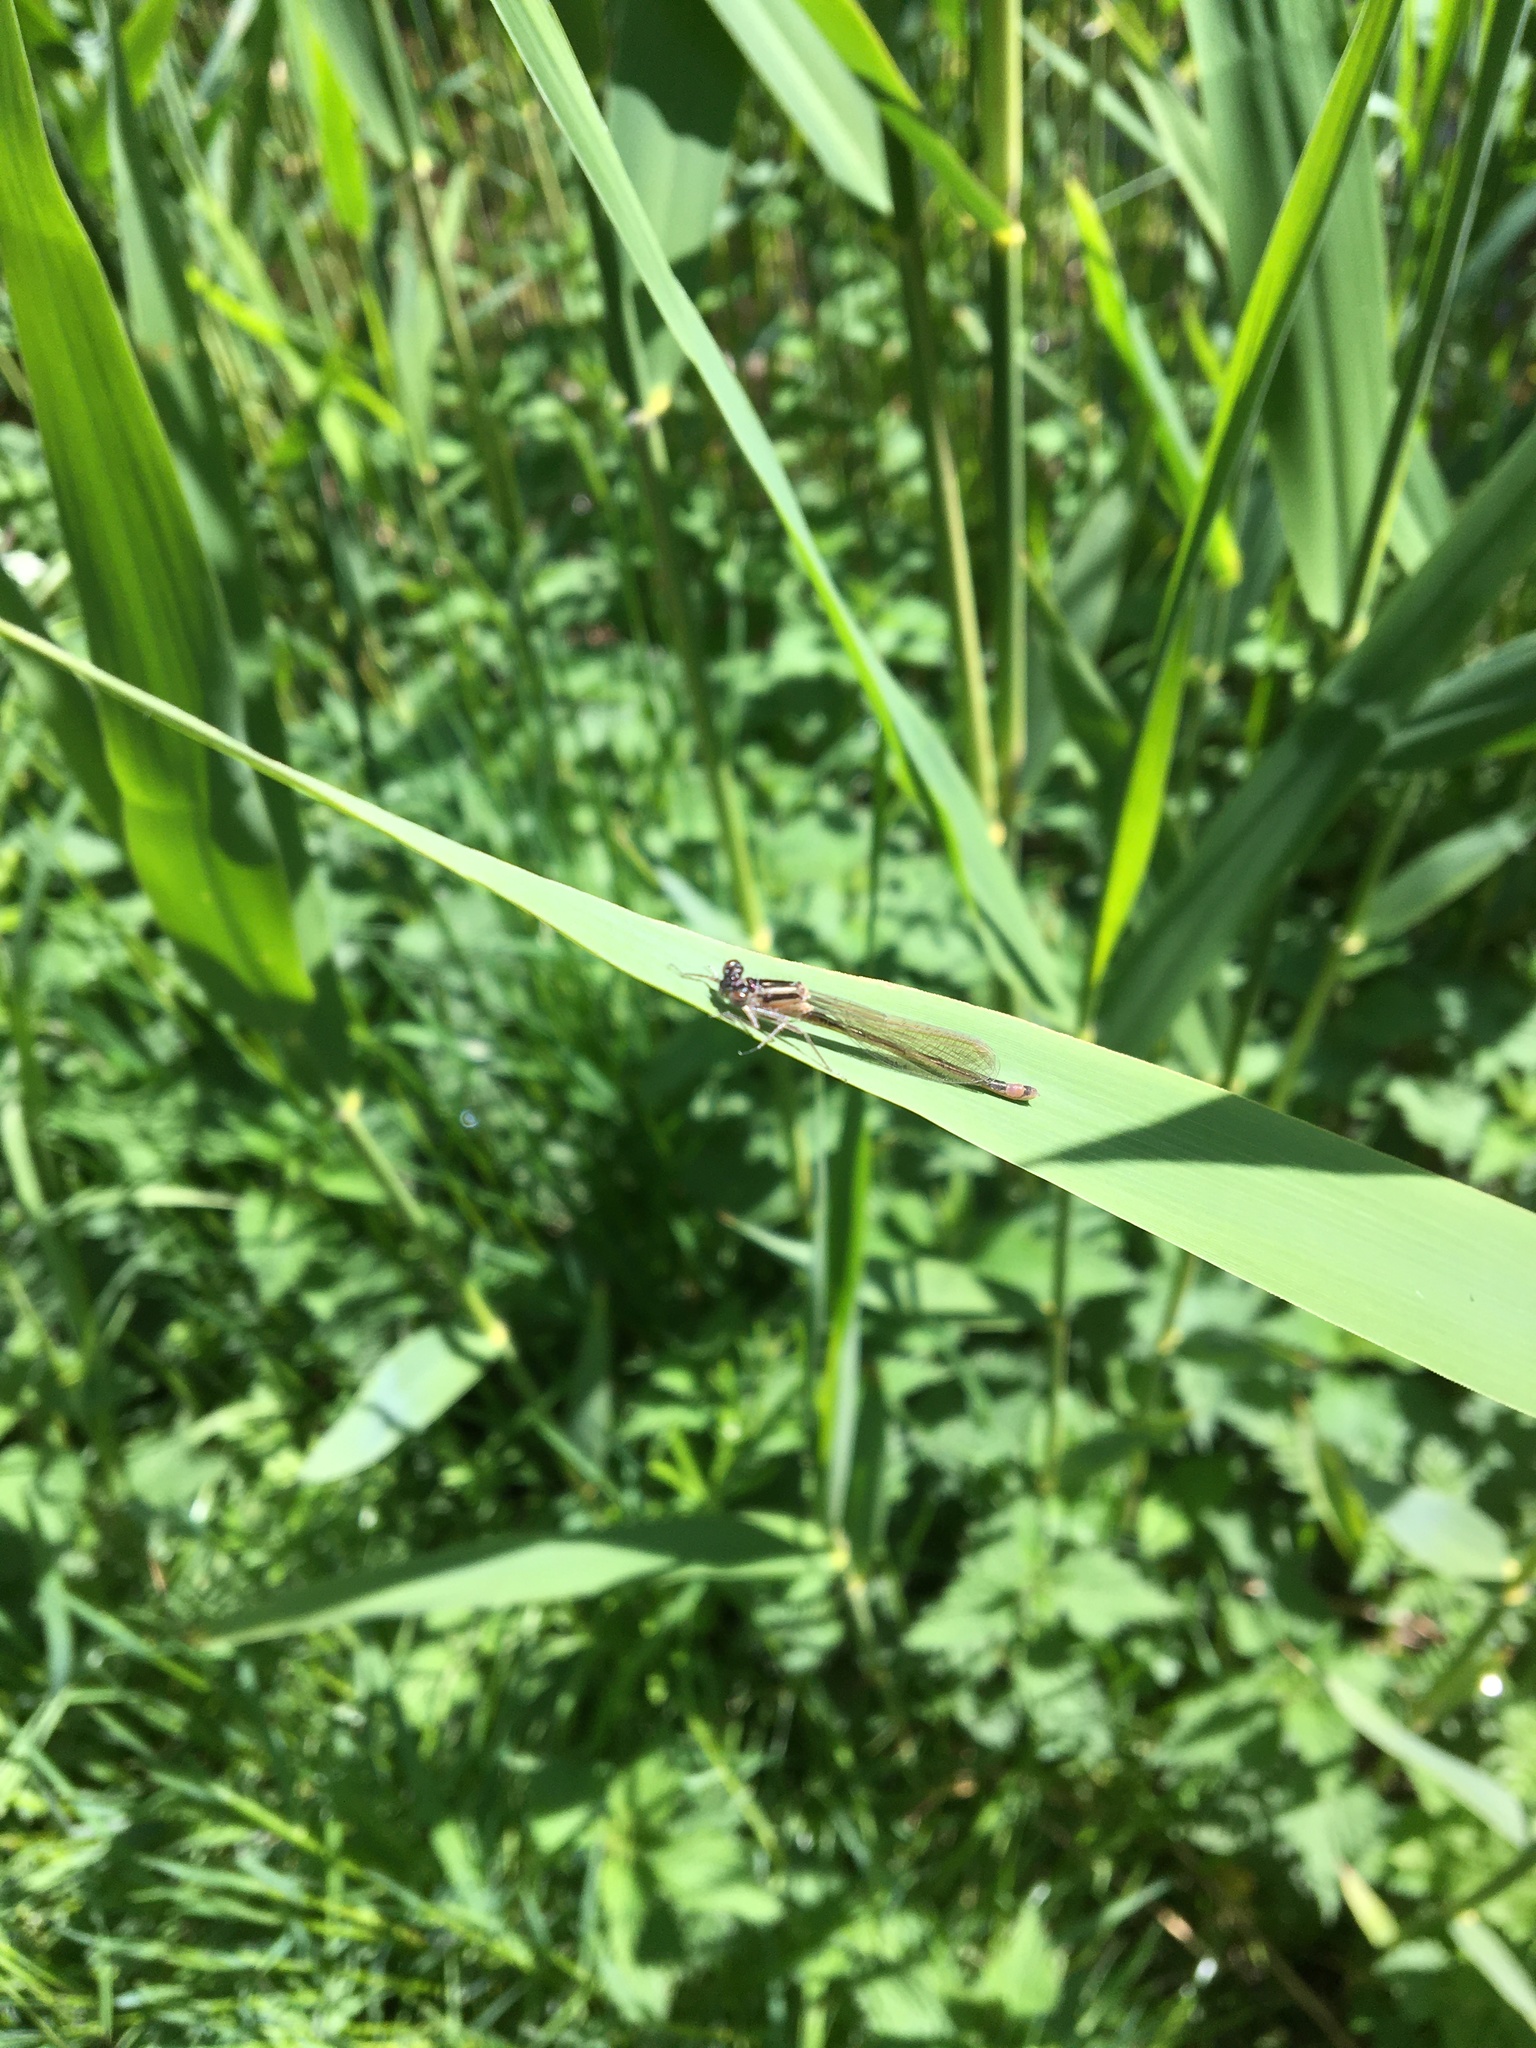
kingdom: Animalia
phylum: Arthropoda
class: Insecta
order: Odonata
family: Coenagrionidae
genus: Ischnura
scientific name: Ischnura elegans
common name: Blue-tailed damselfly
